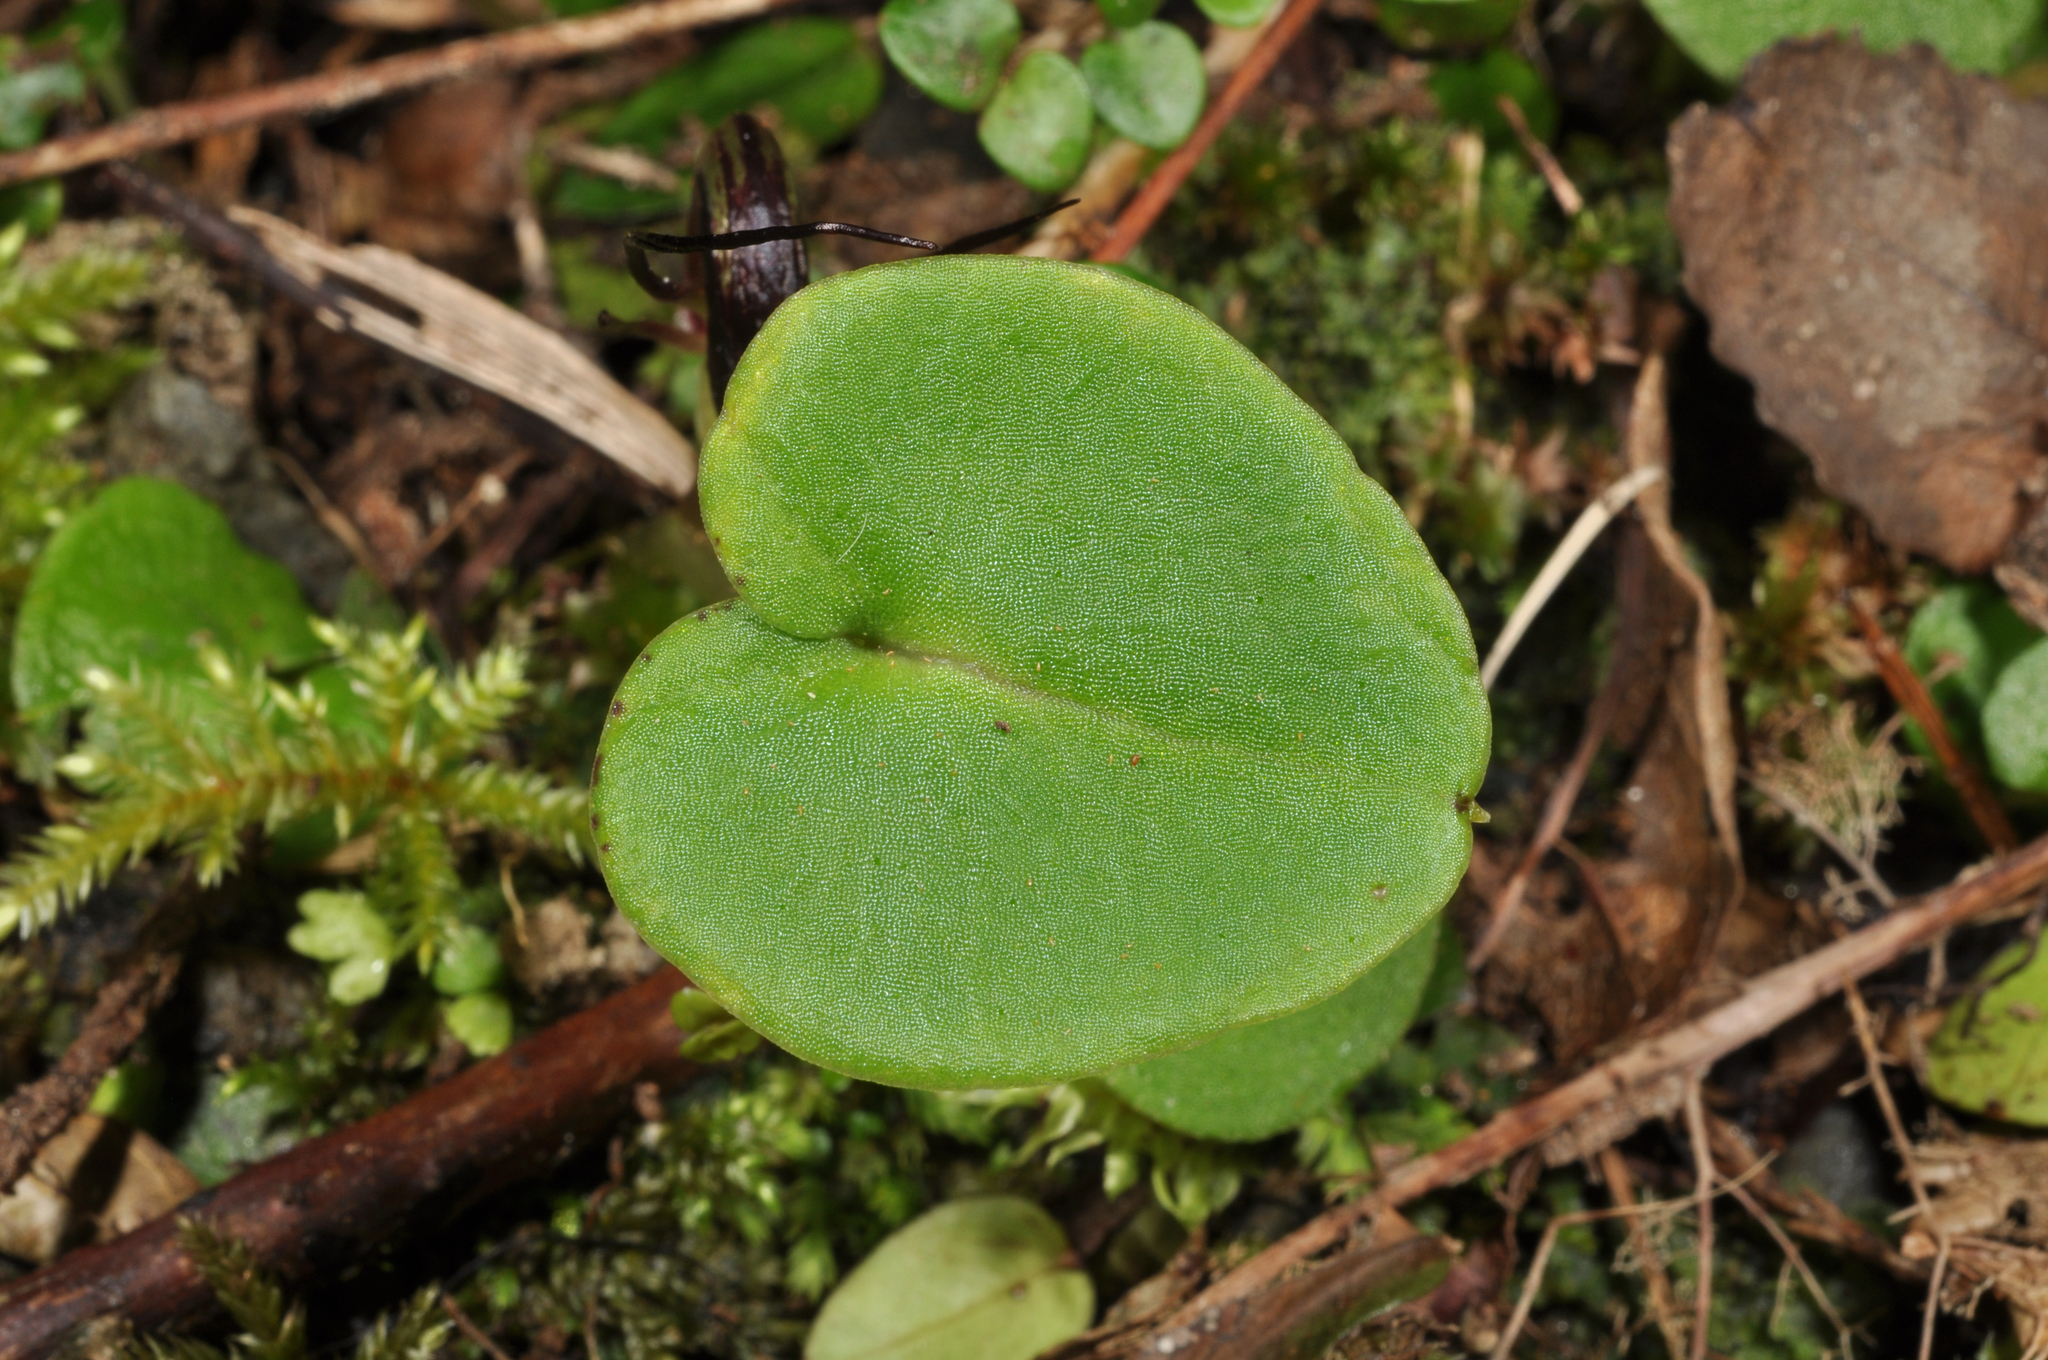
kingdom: Plantae
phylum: Tracheophyta
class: Liliopsida
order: Asparagales
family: Orchidaceae
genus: Corybas
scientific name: Corybas macranthus
